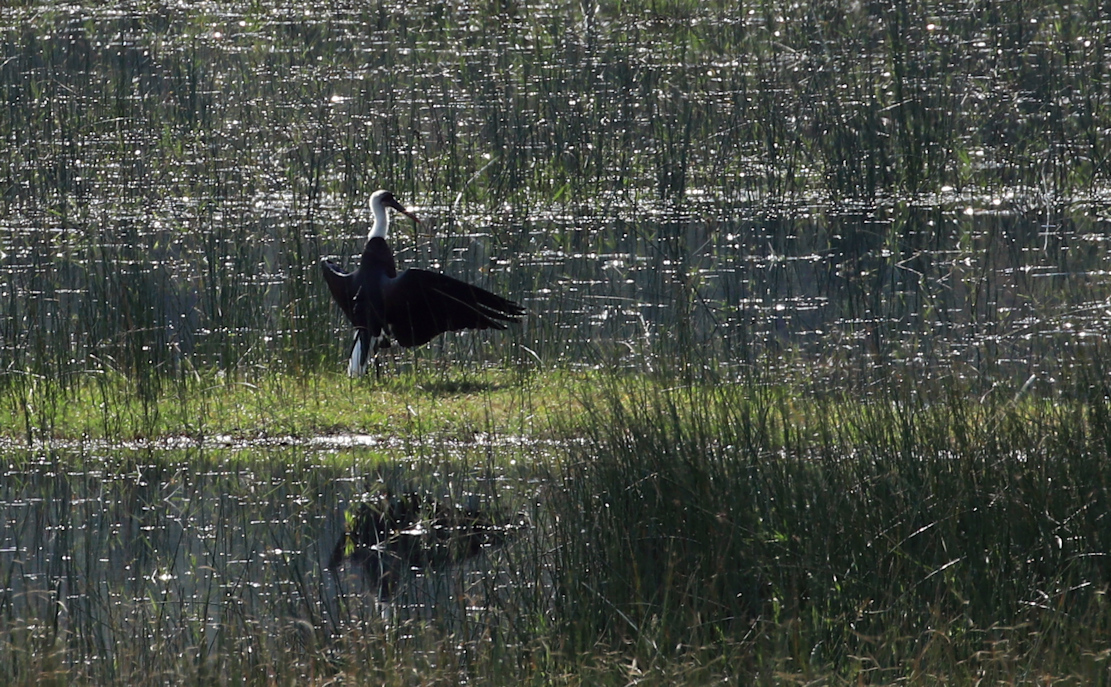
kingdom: Animalia
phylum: Chordata
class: Aves
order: Ciconiiformes
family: Ciconiidae
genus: Ciconia
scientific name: Ciconia microscelis
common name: African woollyneck
